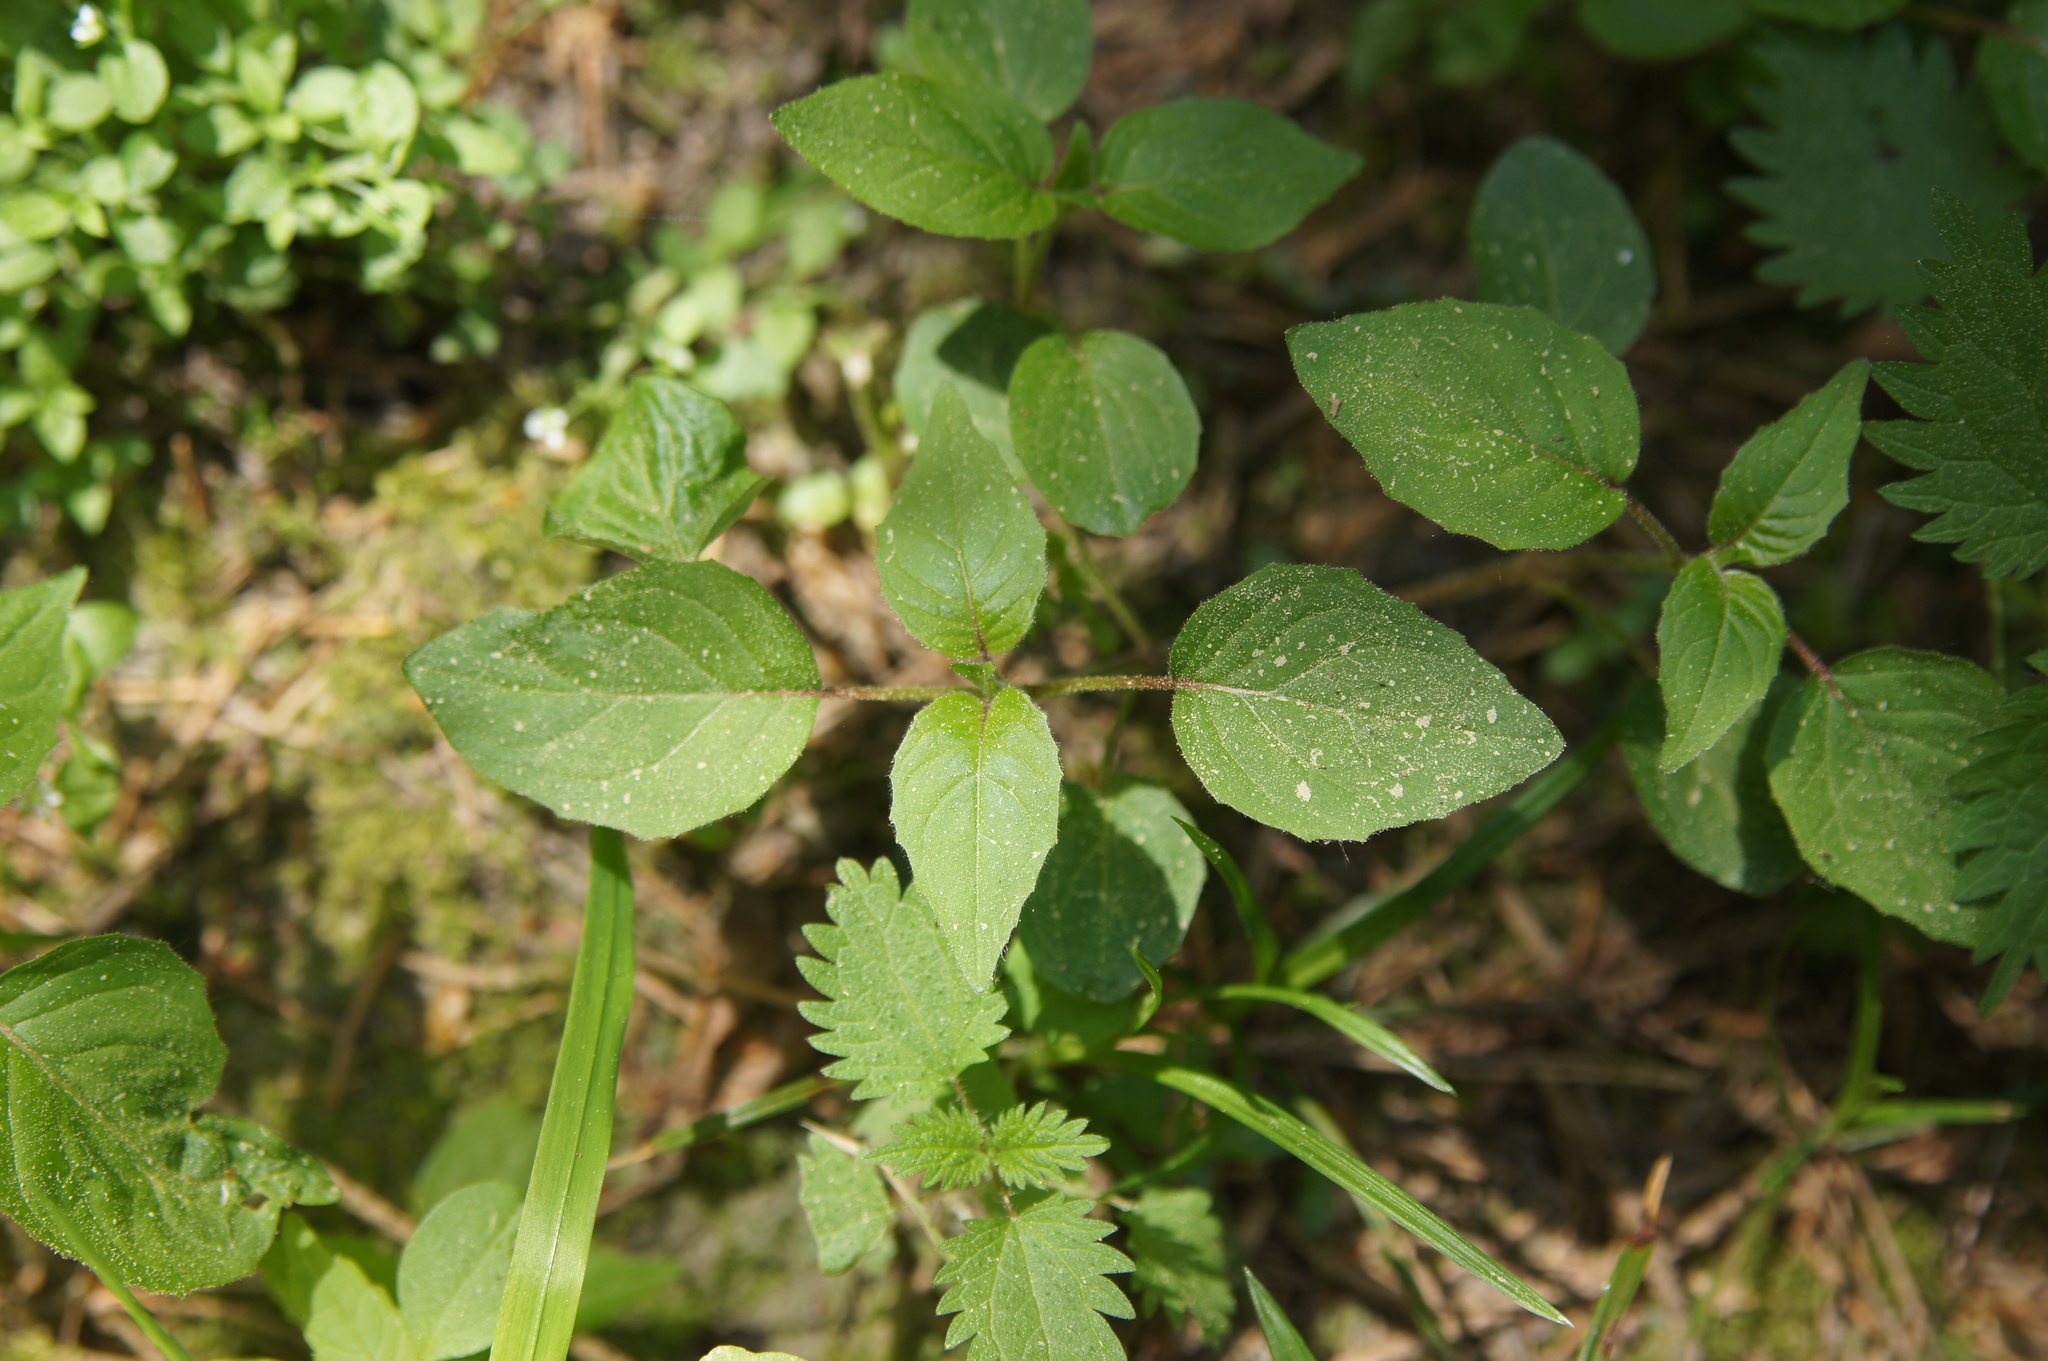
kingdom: Plantae
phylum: Tracheophyta
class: Magnoliopsida
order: Myrtales
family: Onagraceae
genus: Circaea
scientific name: Circaea lutetiana
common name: Enchanter's-nightshade
